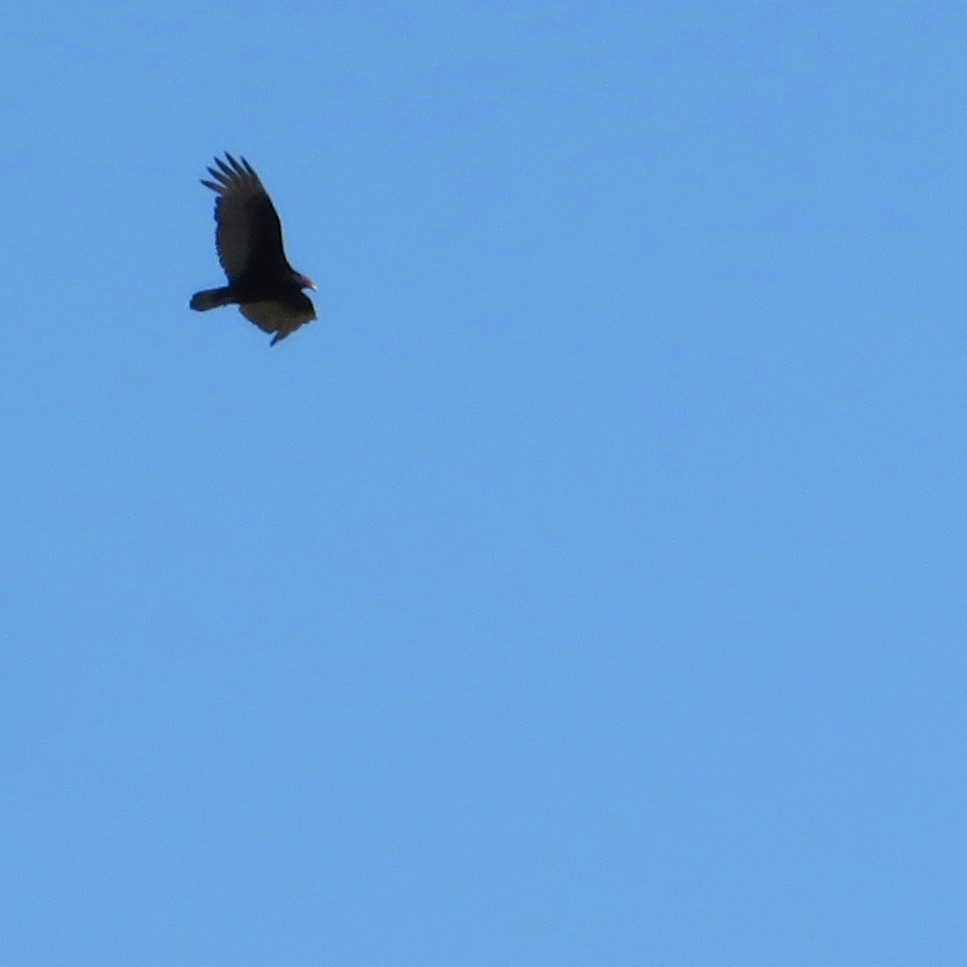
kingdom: Animalia
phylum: Chordata
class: Aves
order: Accipitriformes
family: Cathartidae
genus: Cathartes
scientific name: Cathartes aura
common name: Turkey vulture
